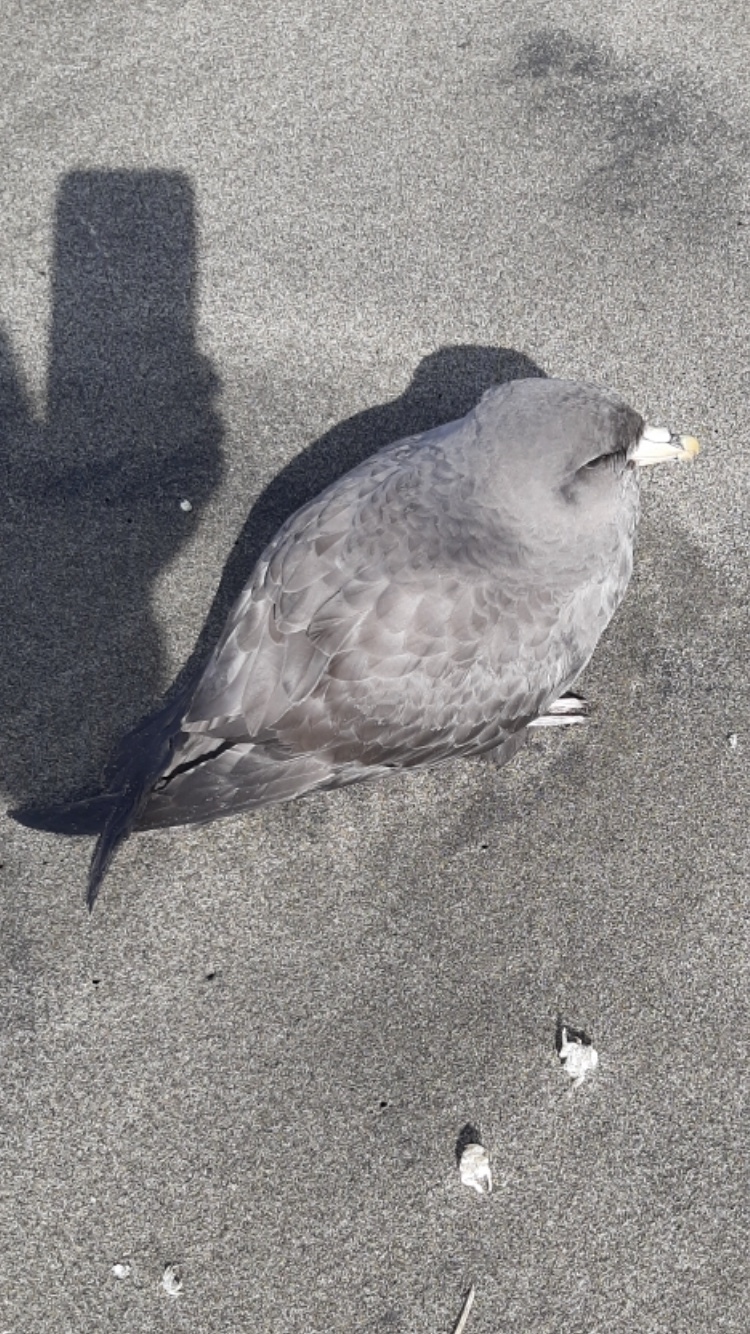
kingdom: Animalia
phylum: Chordata
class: Aves
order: Procellariiformes
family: Procellariidae
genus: Fulmarus
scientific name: Fulmarus glacialis
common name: Northern fulmar
